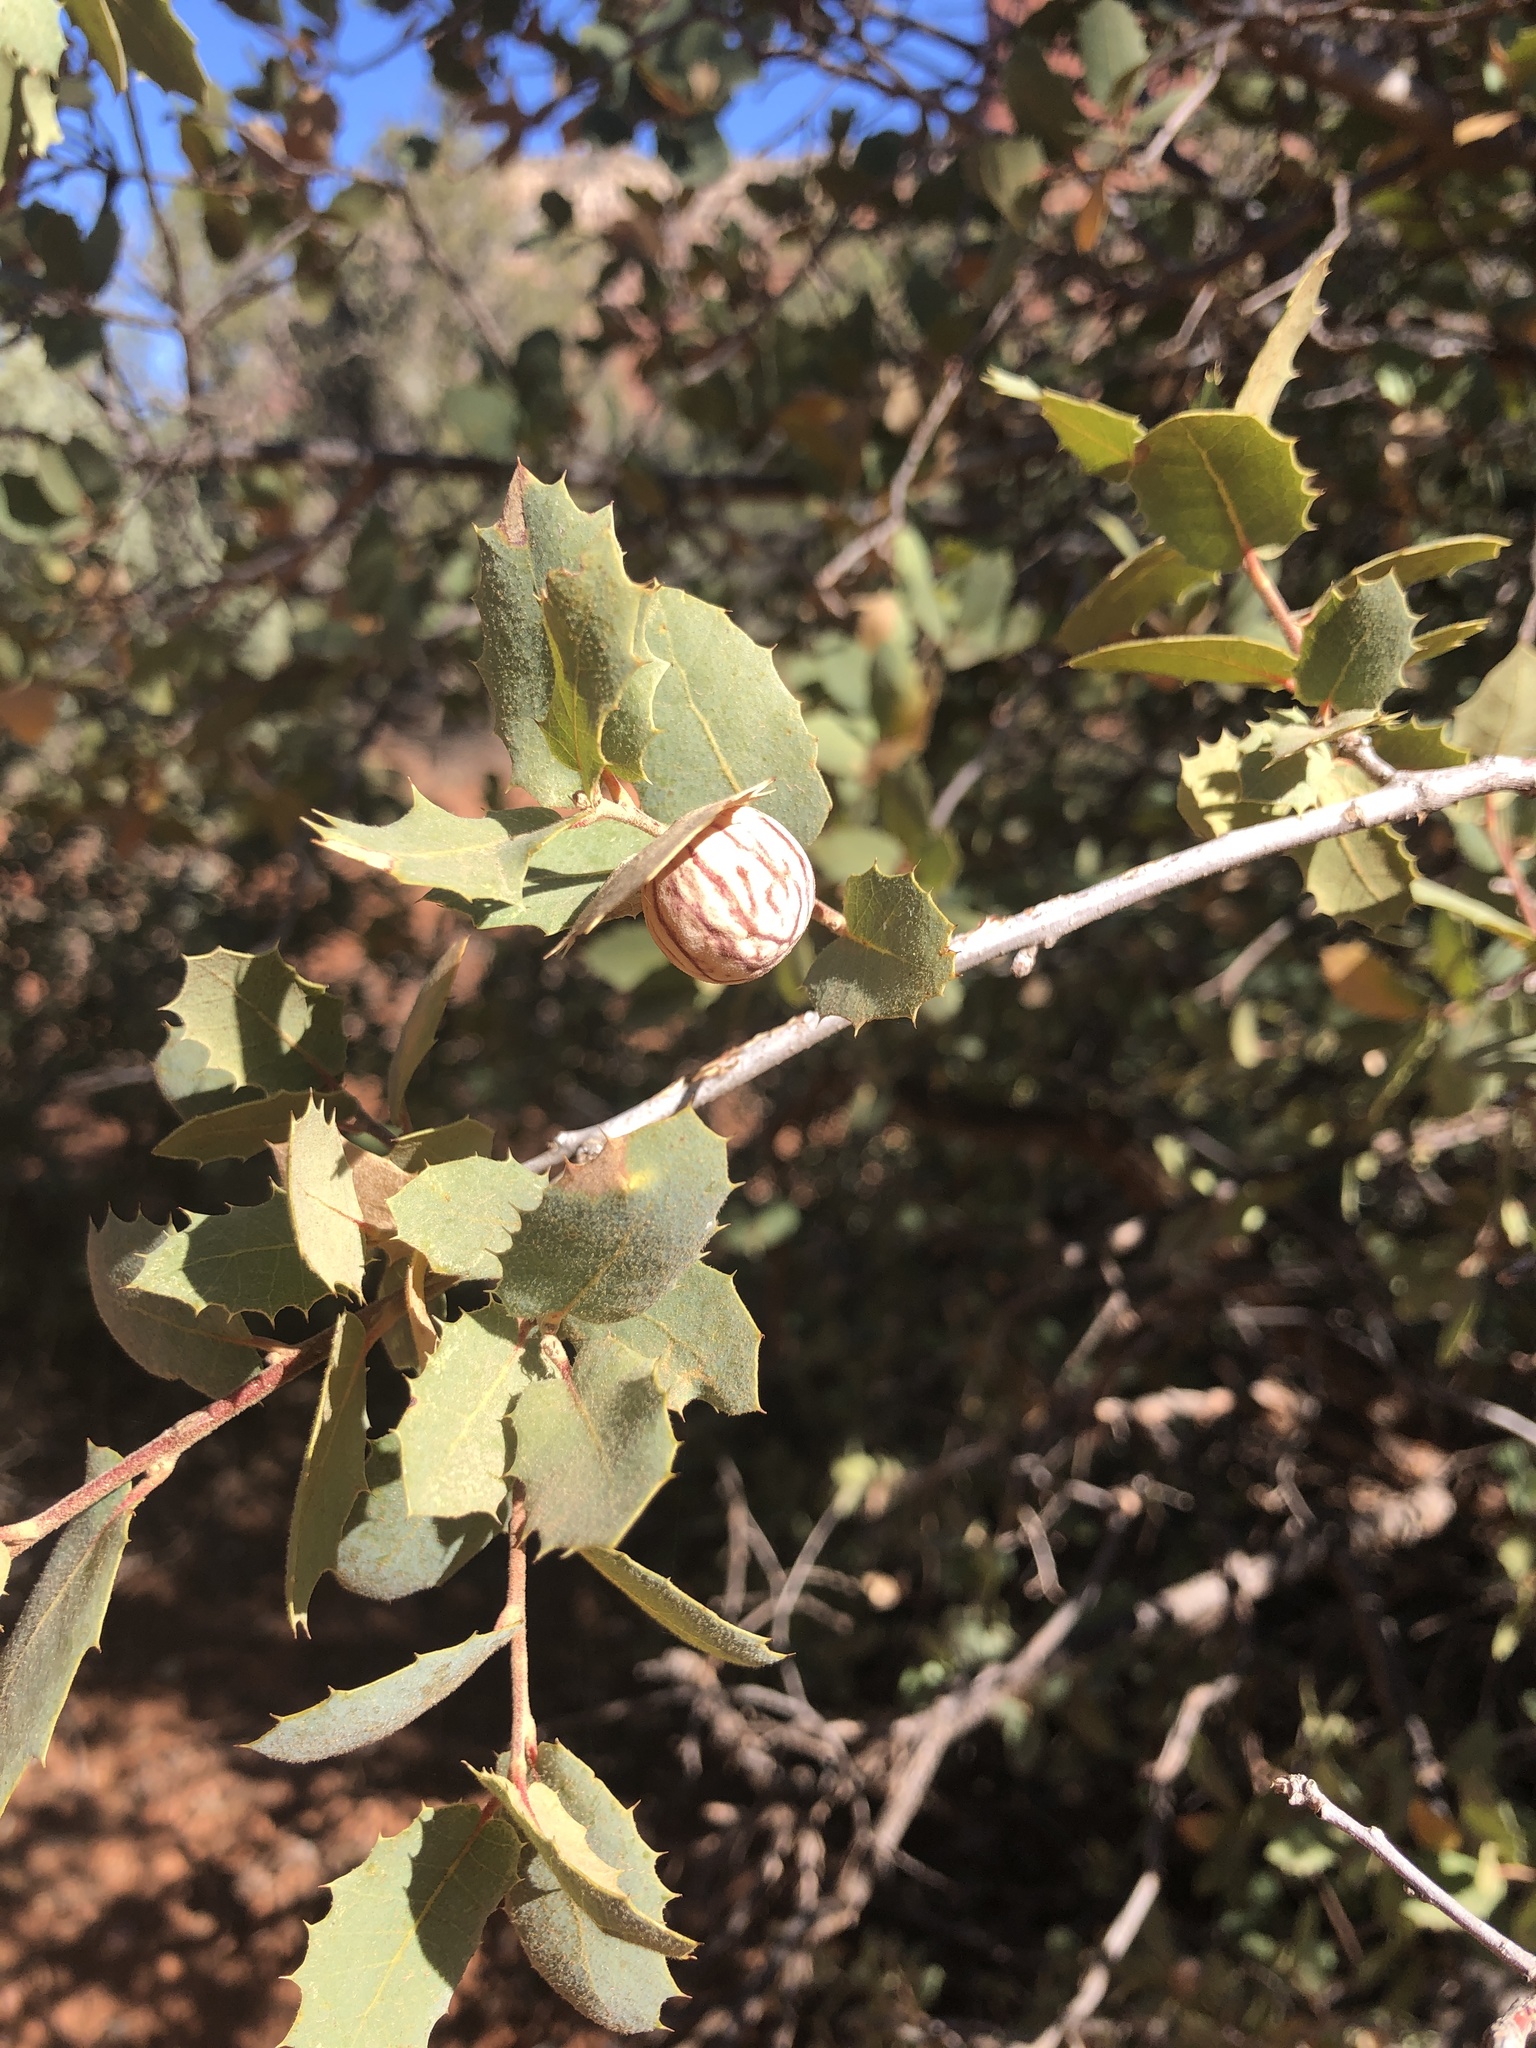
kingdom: Plantae
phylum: Tracheophyta
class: Magnoliopsida
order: Fagales
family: Fagaceae
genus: Quercus
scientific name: Quercus turbinella
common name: Sonoran scrub oak
